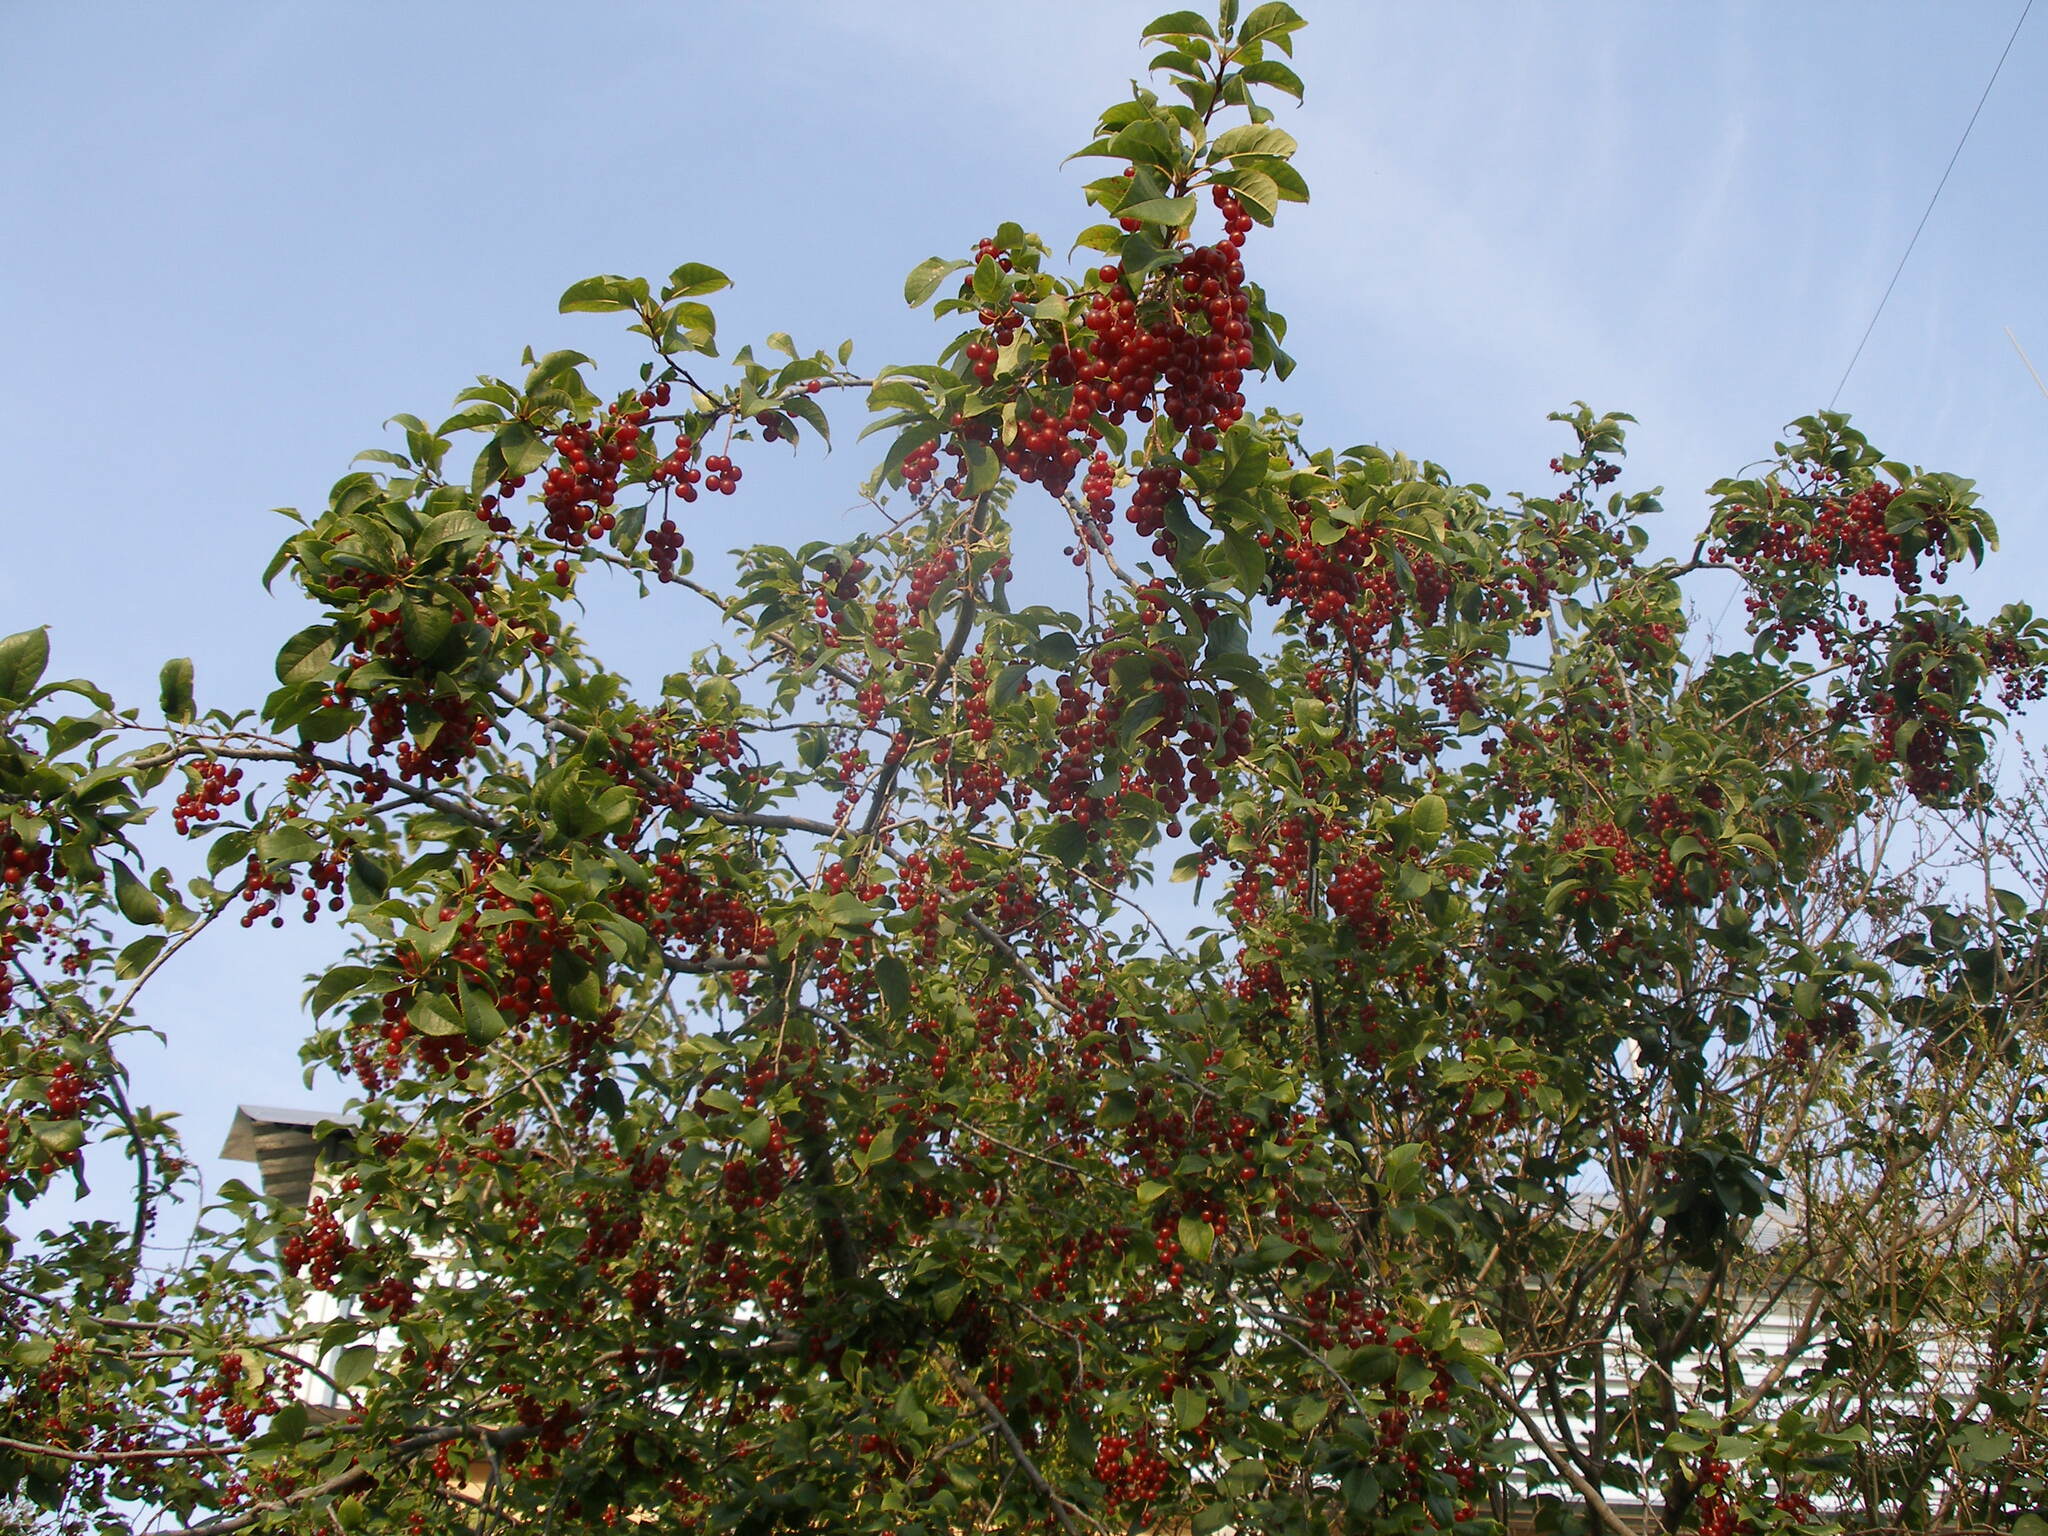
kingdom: Plantae
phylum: Tracheophyta
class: Magnoliopsida
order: Rosales
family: Rosaceae
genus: Prunus
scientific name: Prunus virginiana
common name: Chokecherry
